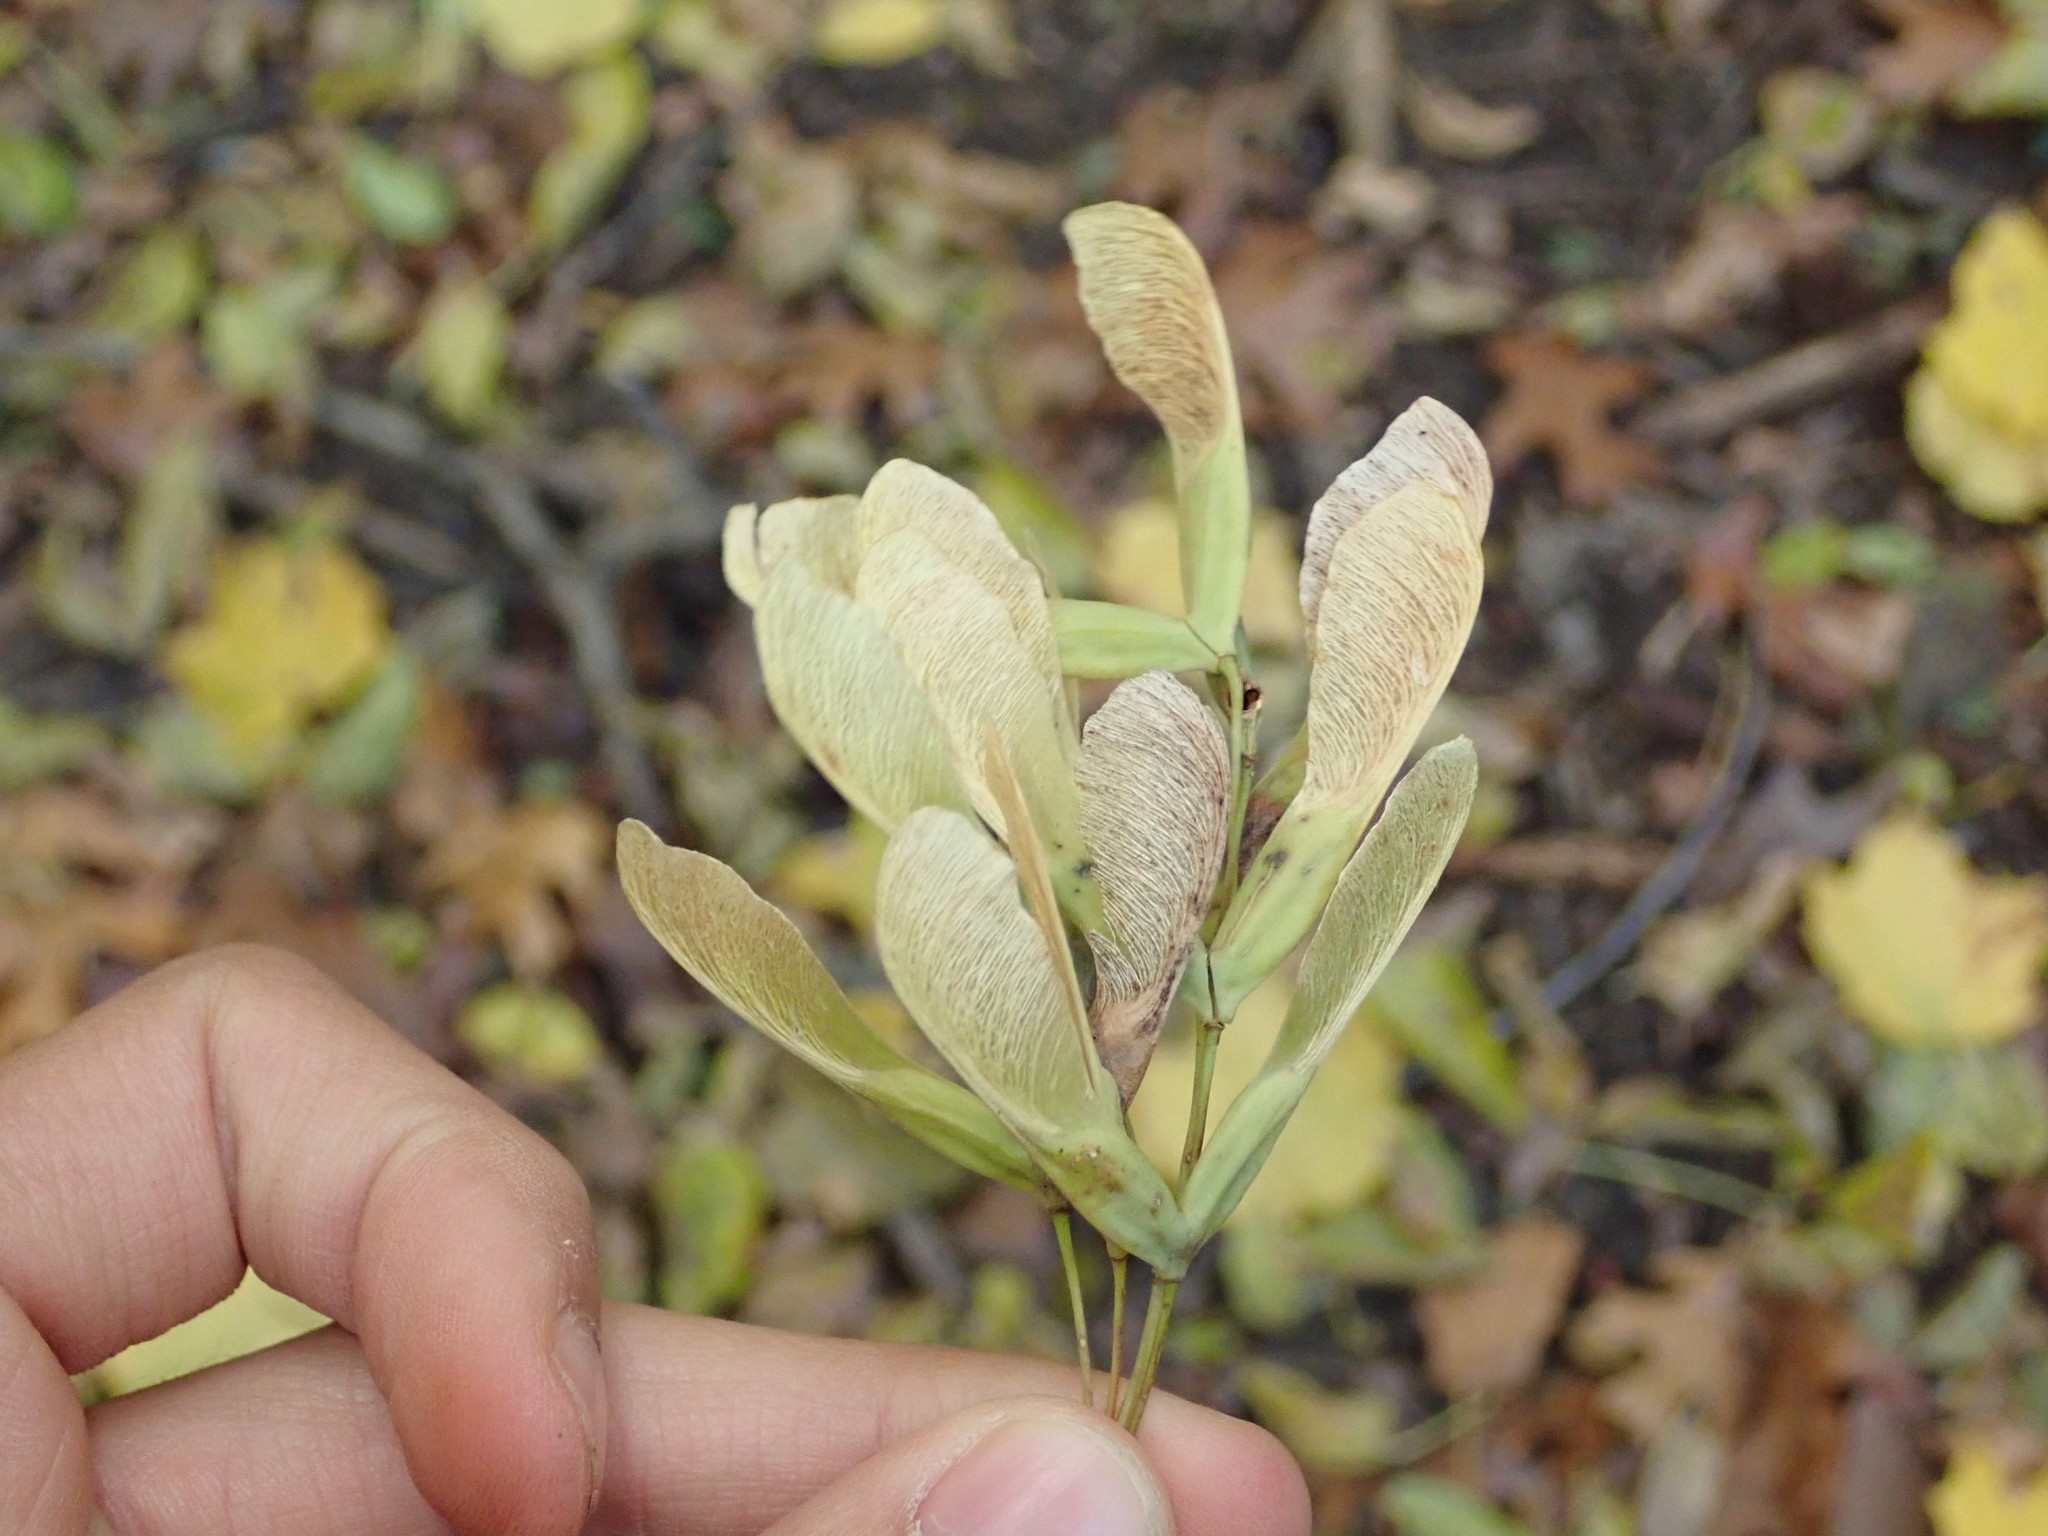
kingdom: Plantae
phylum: Tracheophyta
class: Magnoliopsida
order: Sapindales
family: Sapindaceae
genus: Acer
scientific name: Acer negundo
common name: Ashleaf maple
